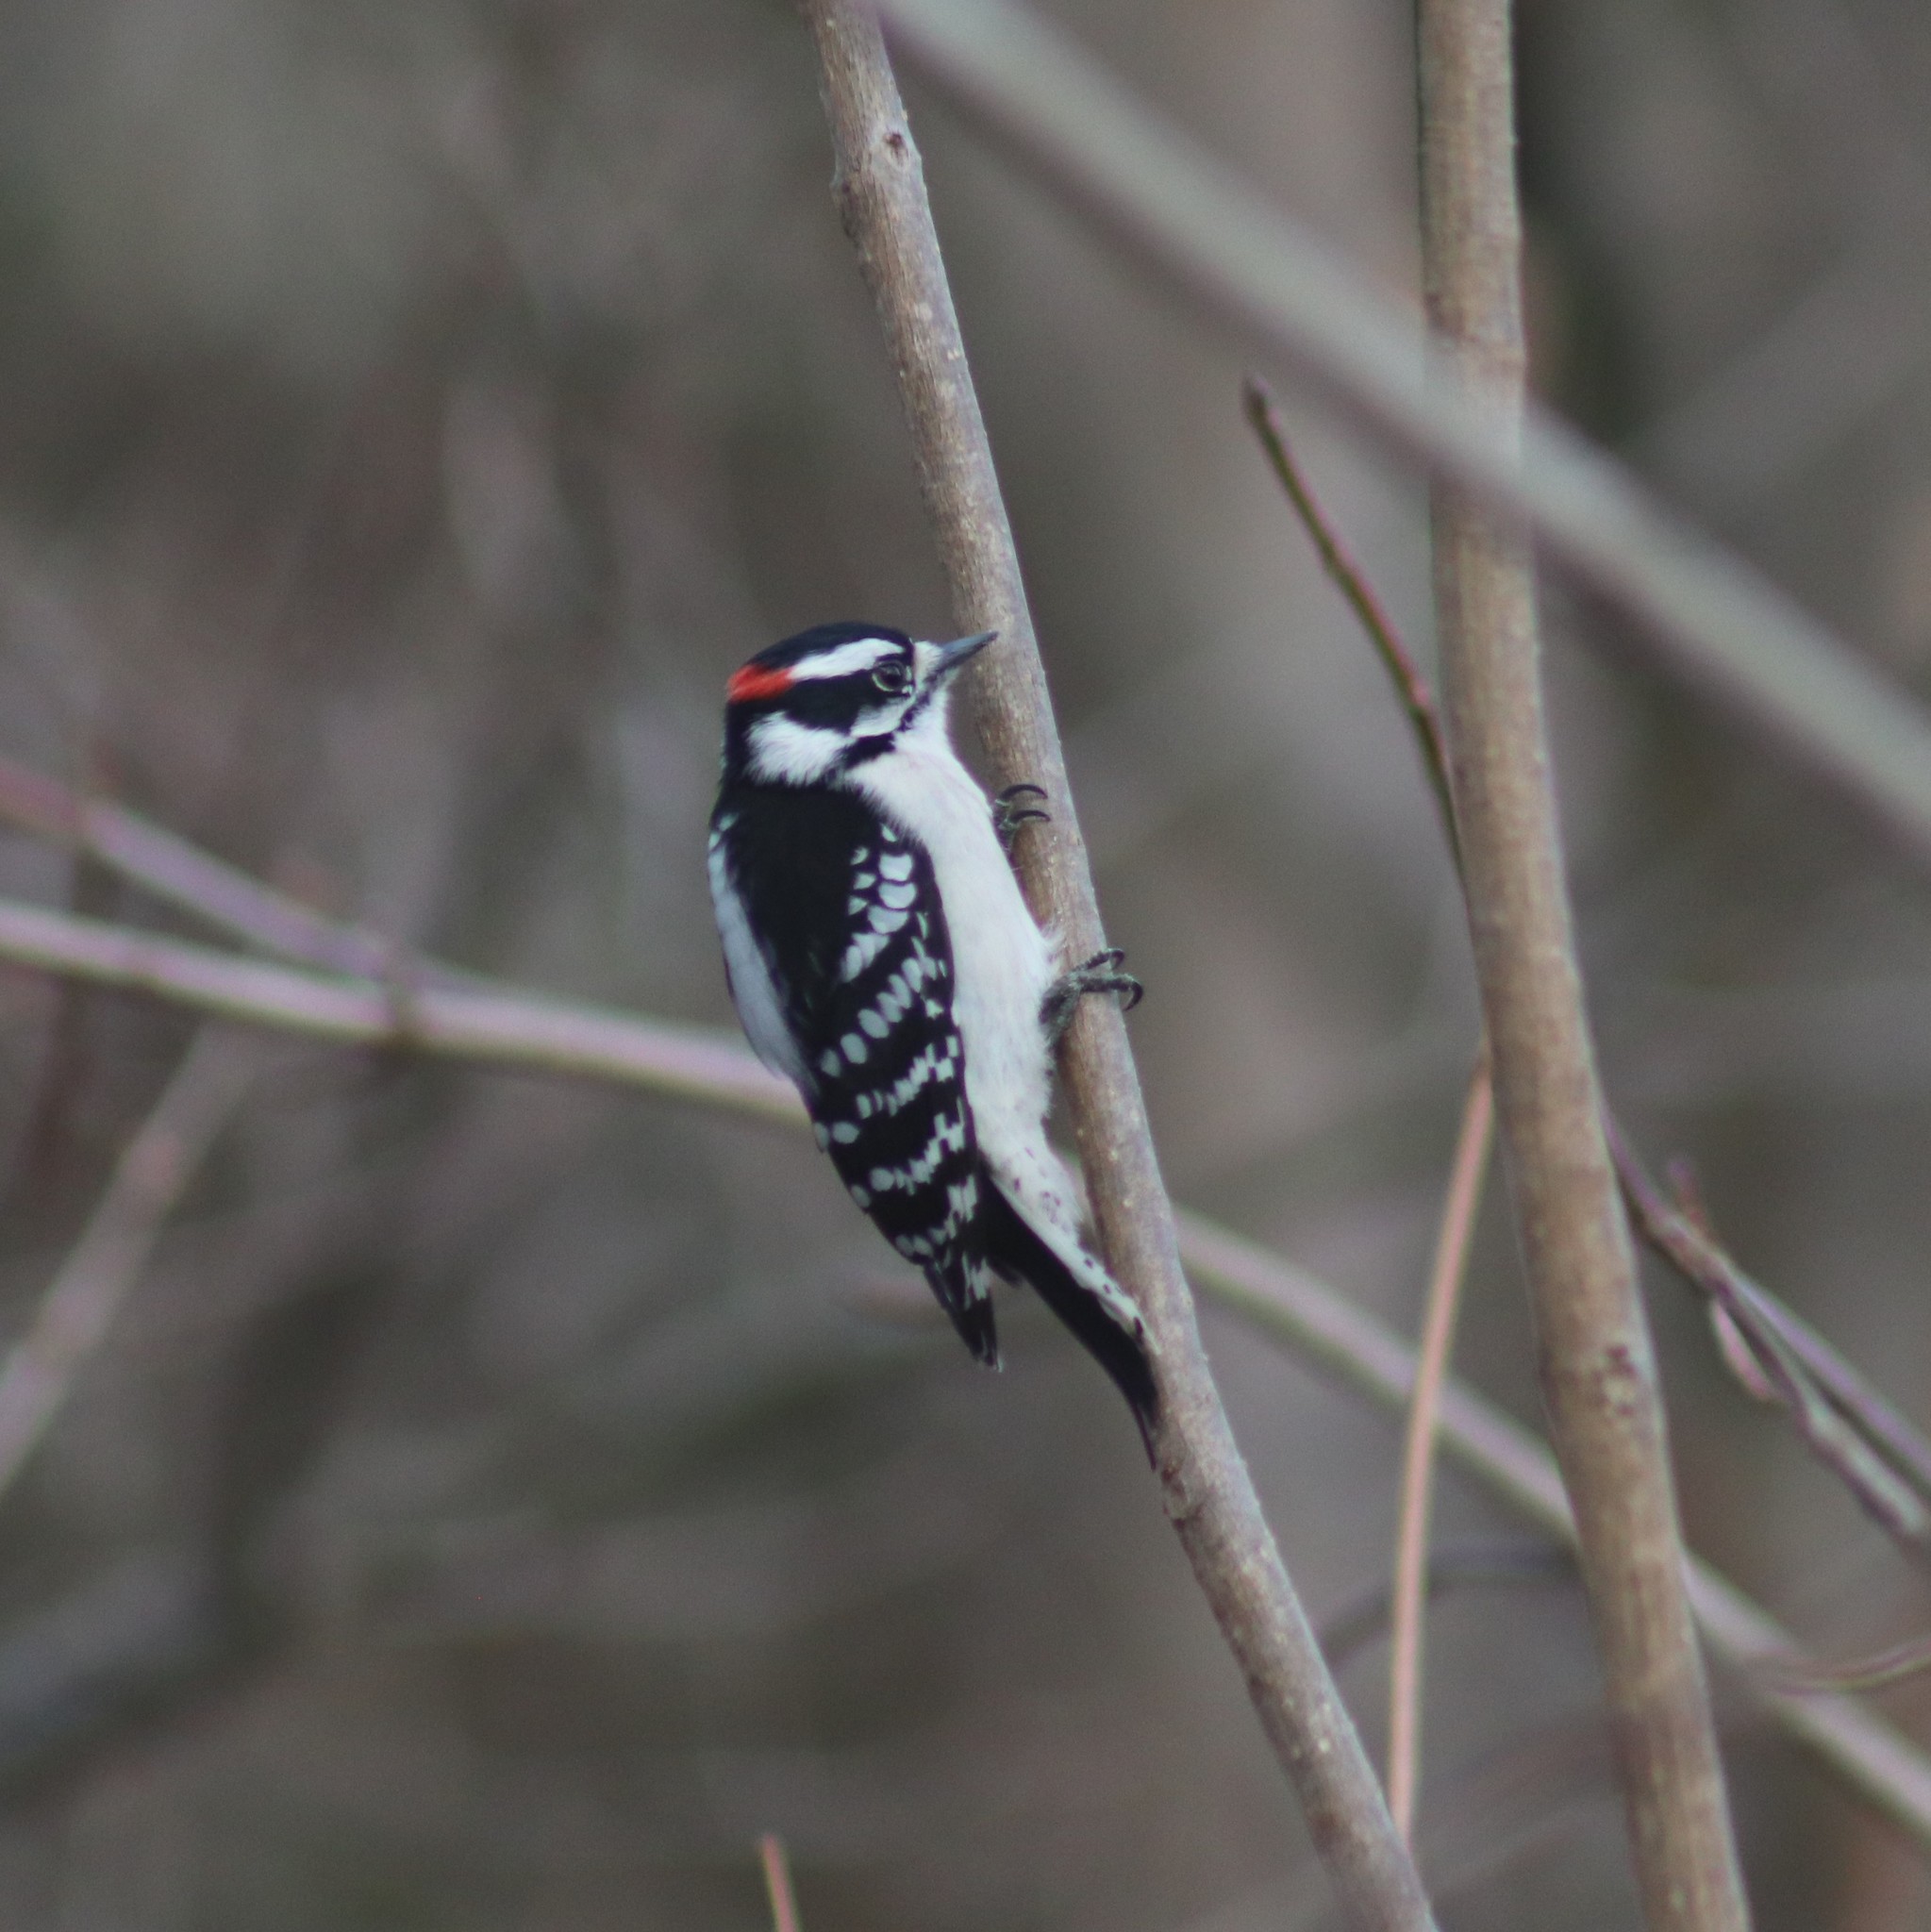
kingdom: Animalia
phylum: Chordata
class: Aves
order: Piciformes
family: Picidae
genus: Dryobates
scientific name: Dryobates pubescens
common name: Downy woodpecker
